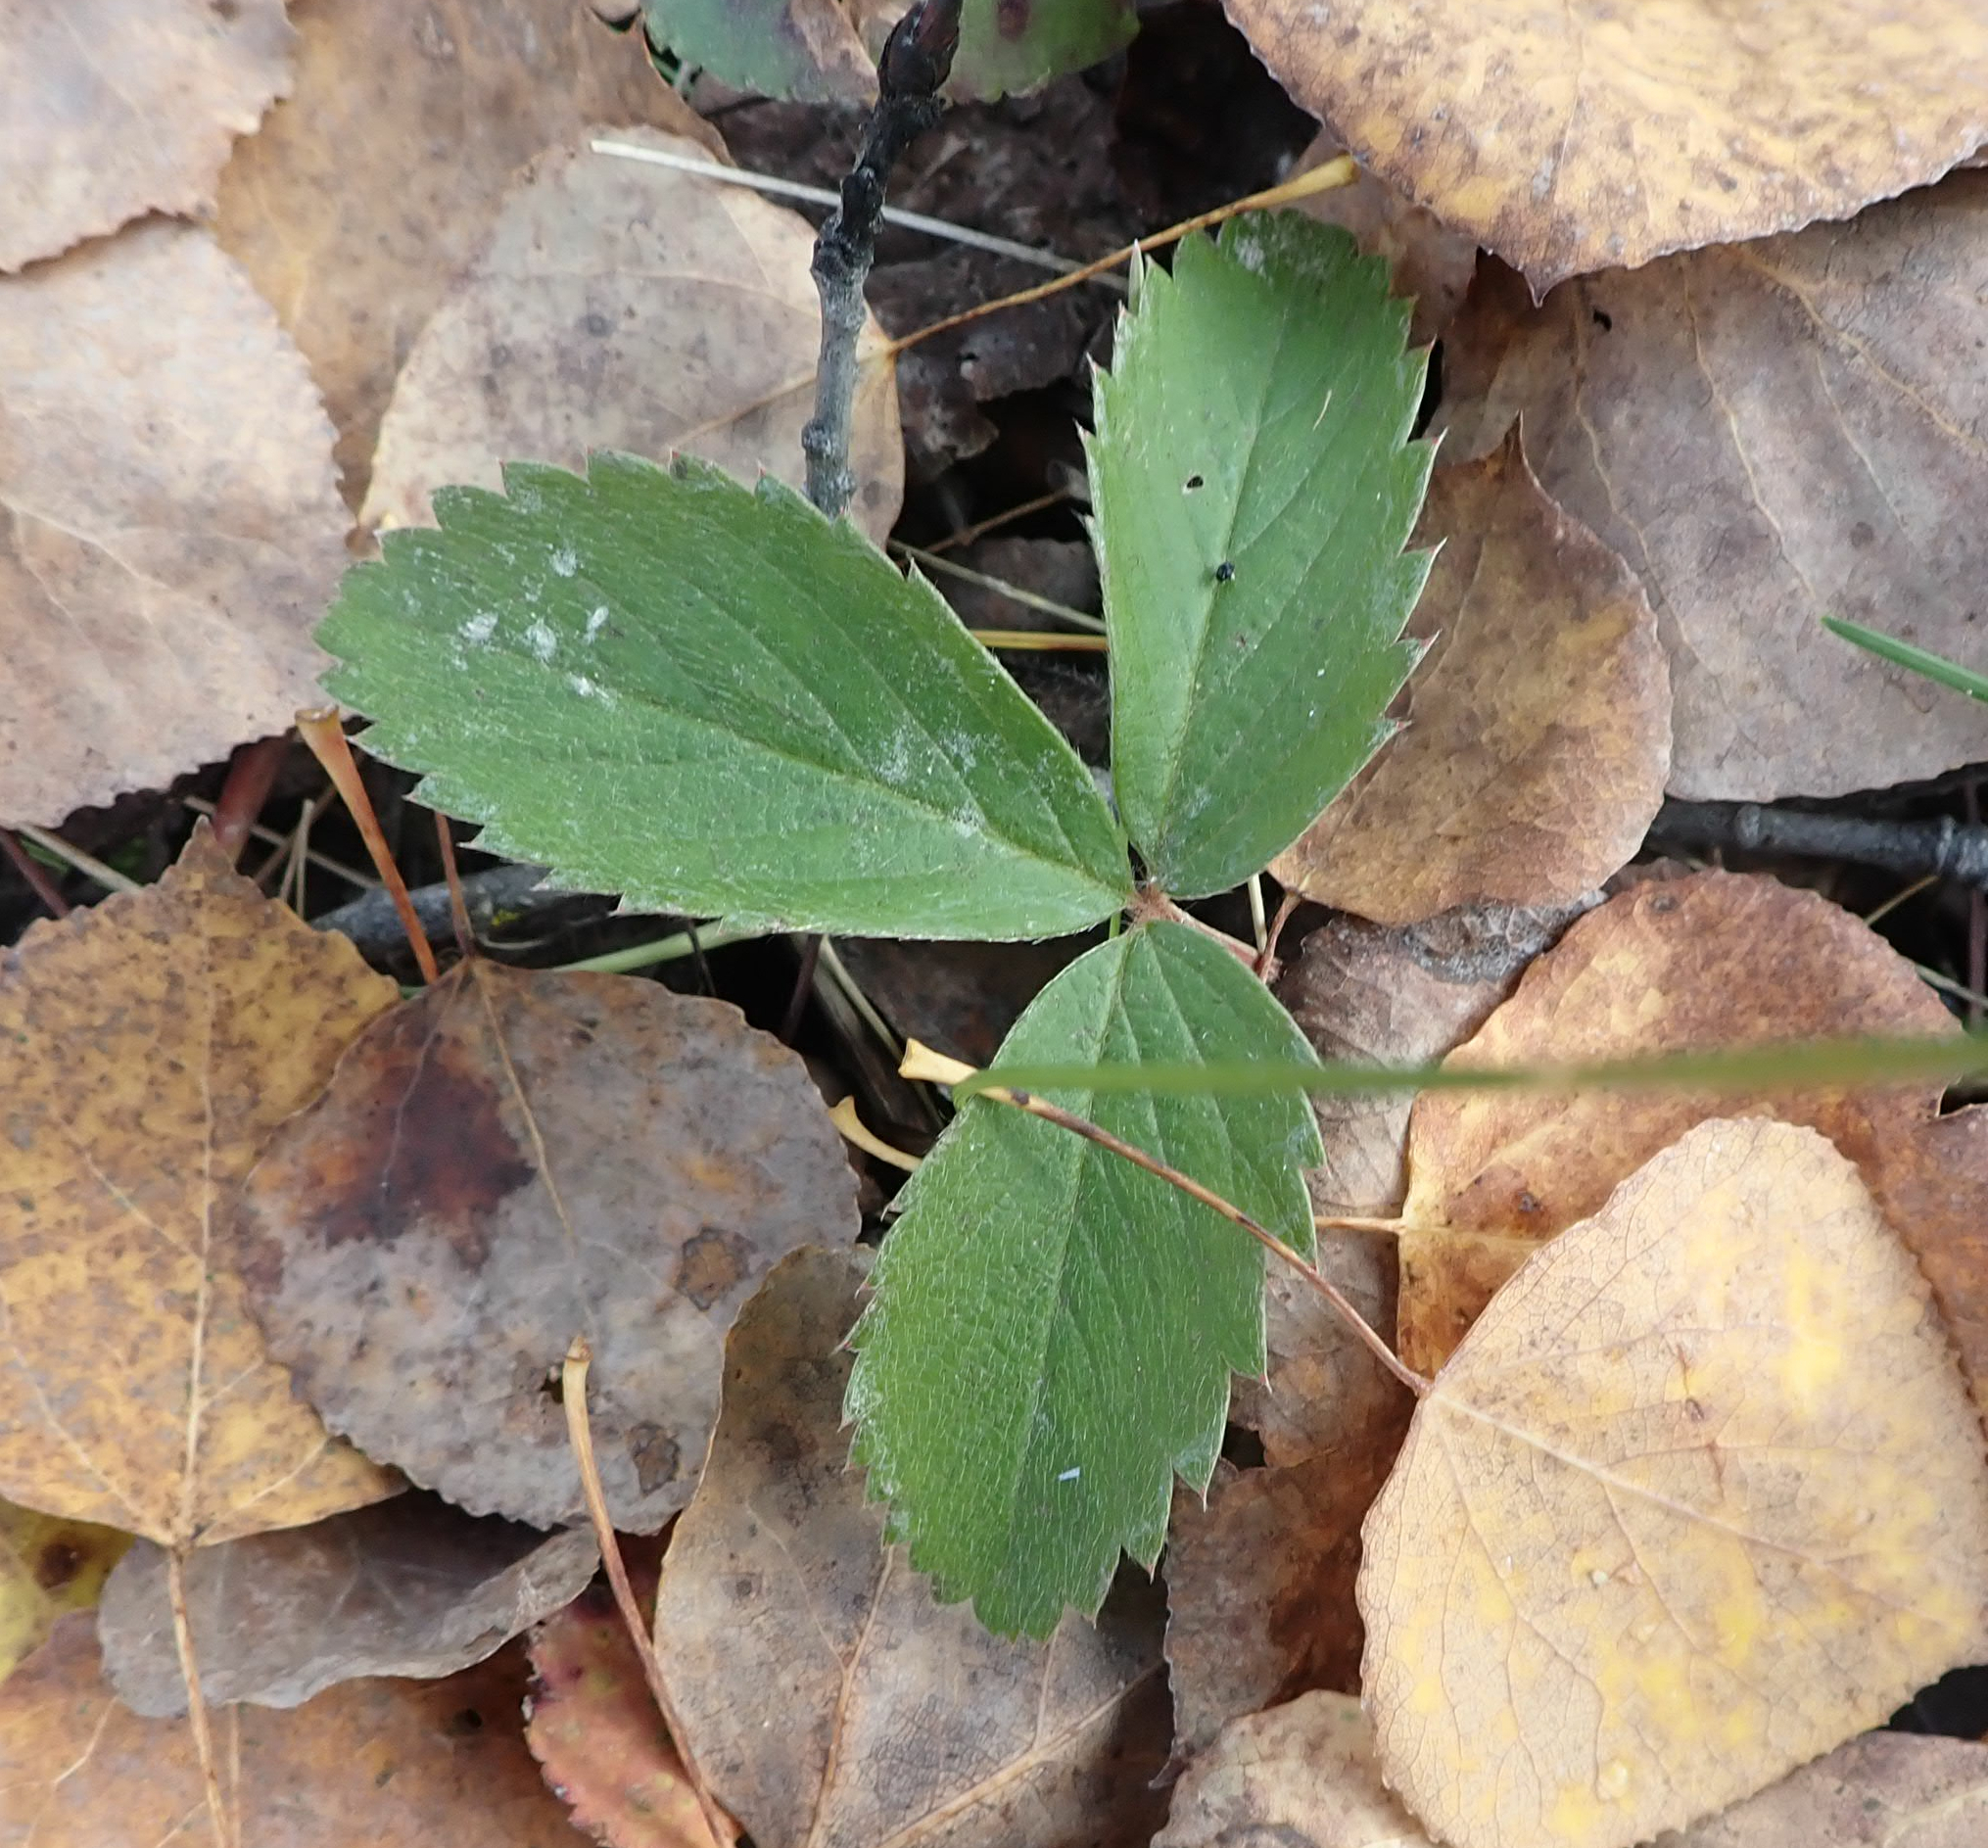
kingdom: Plantae
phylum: Tracheophyta
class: Magnoliopsida
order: Rosales
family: Rosaceae
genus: Fragaria
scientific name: Fragaria virginiana
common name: Thickleaved wild strawberry
